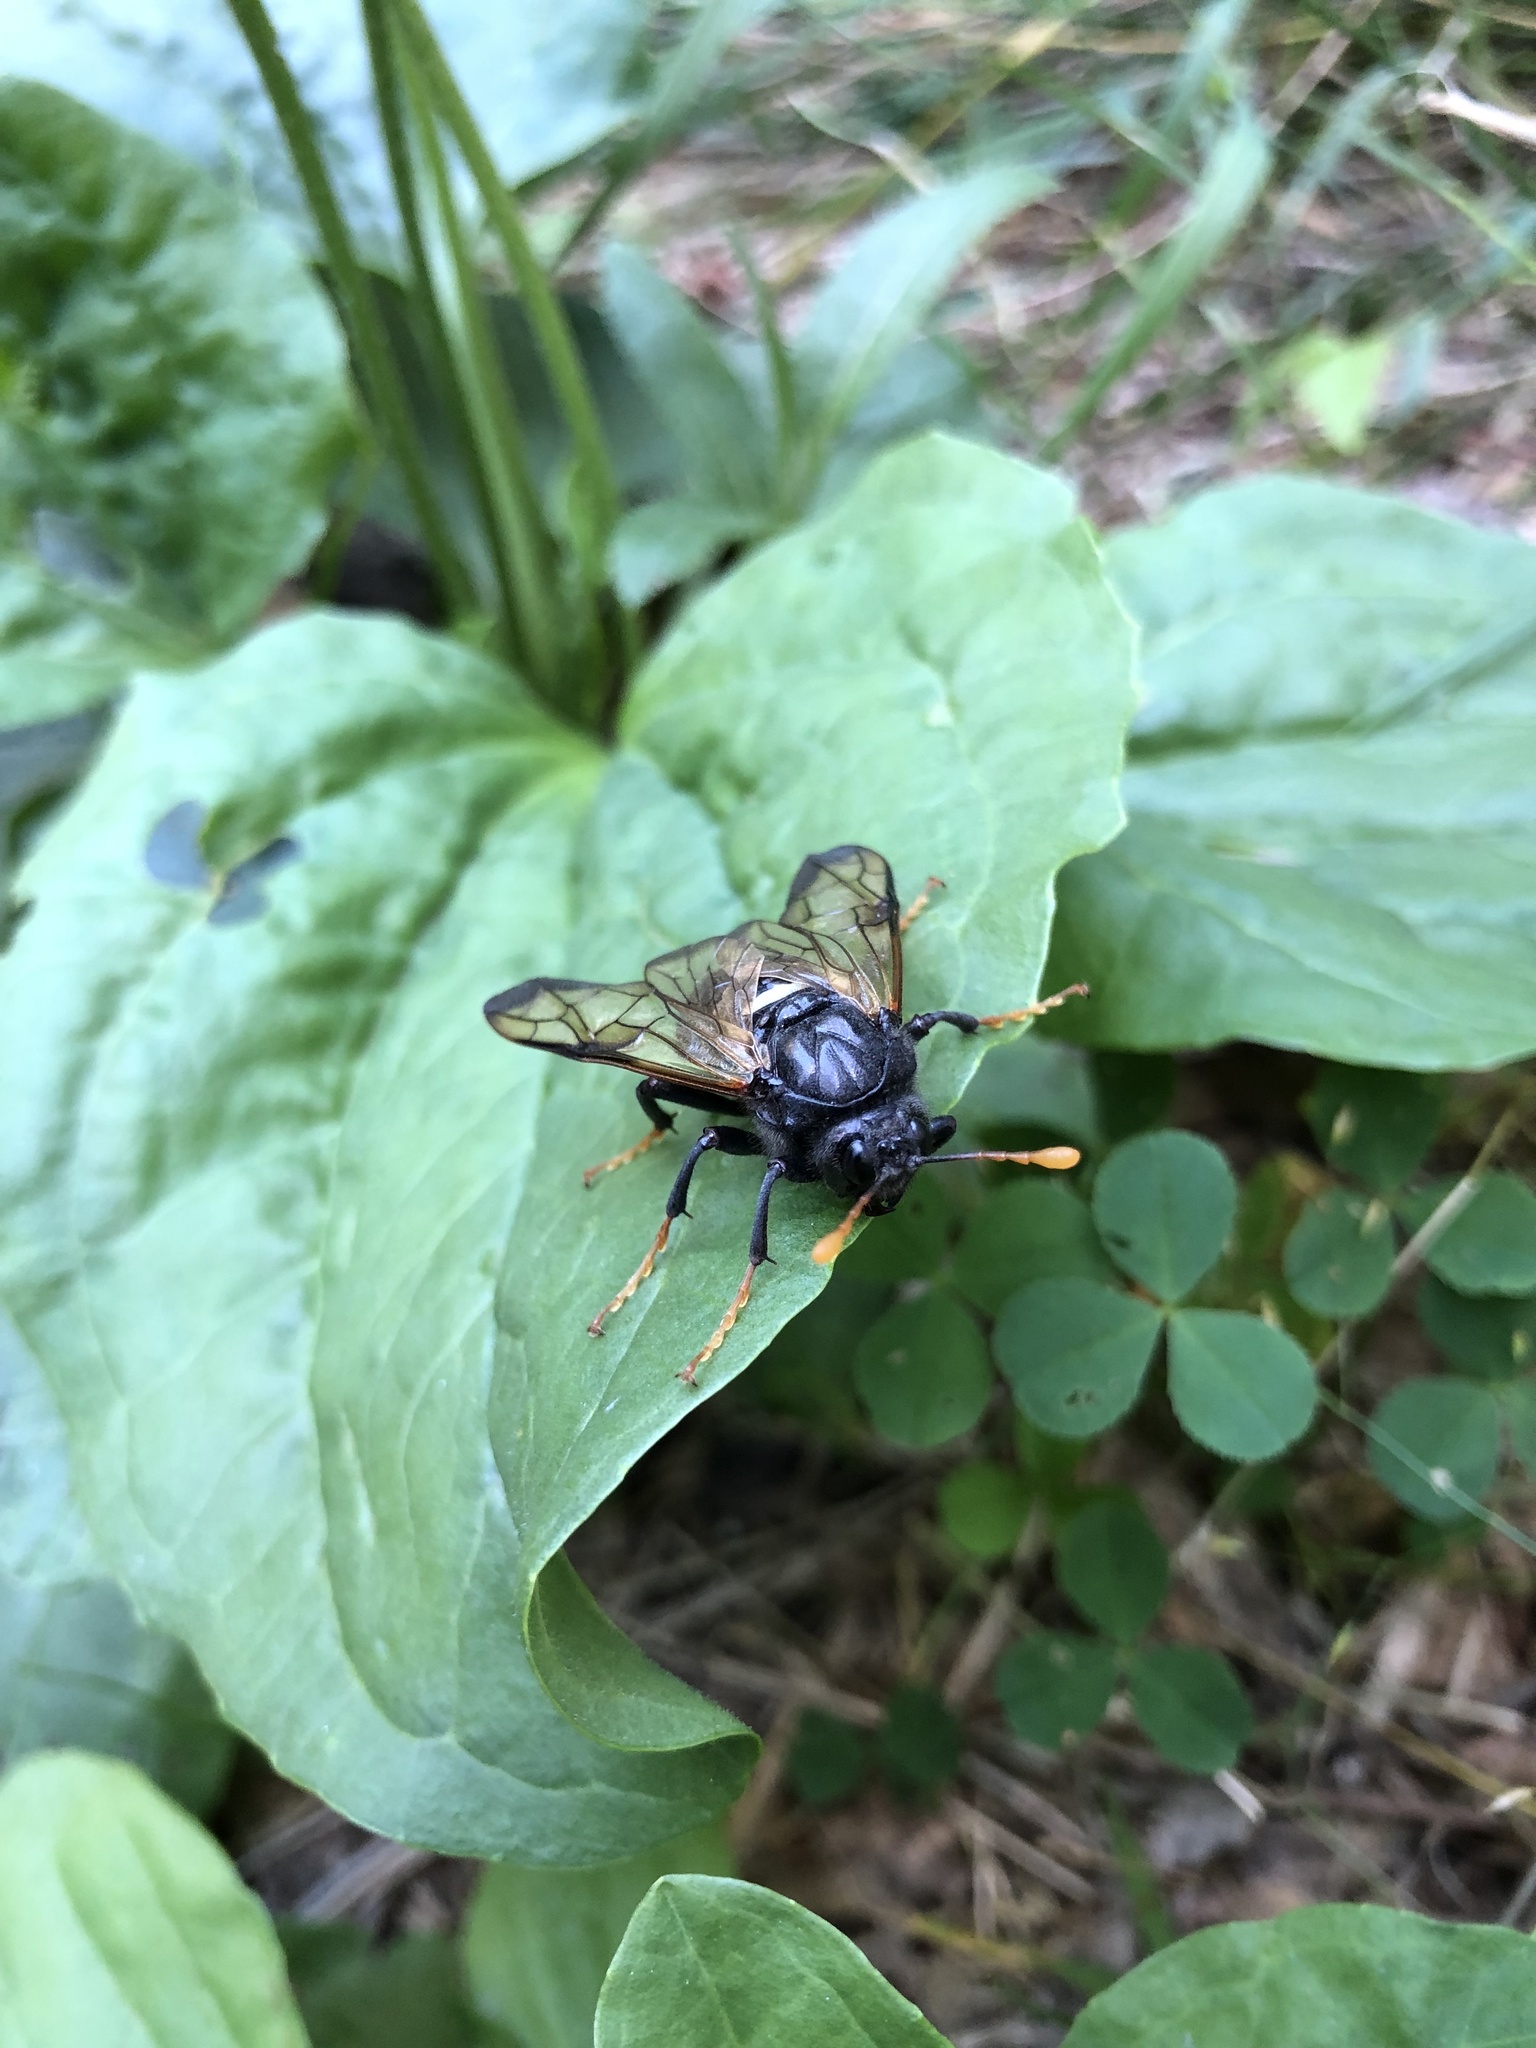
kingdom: Animalia
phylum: Arthropoda
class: Insecta
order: Hymenoptera
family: Cimbicidae
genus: Cimbex
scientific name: Cimbex femoratus
